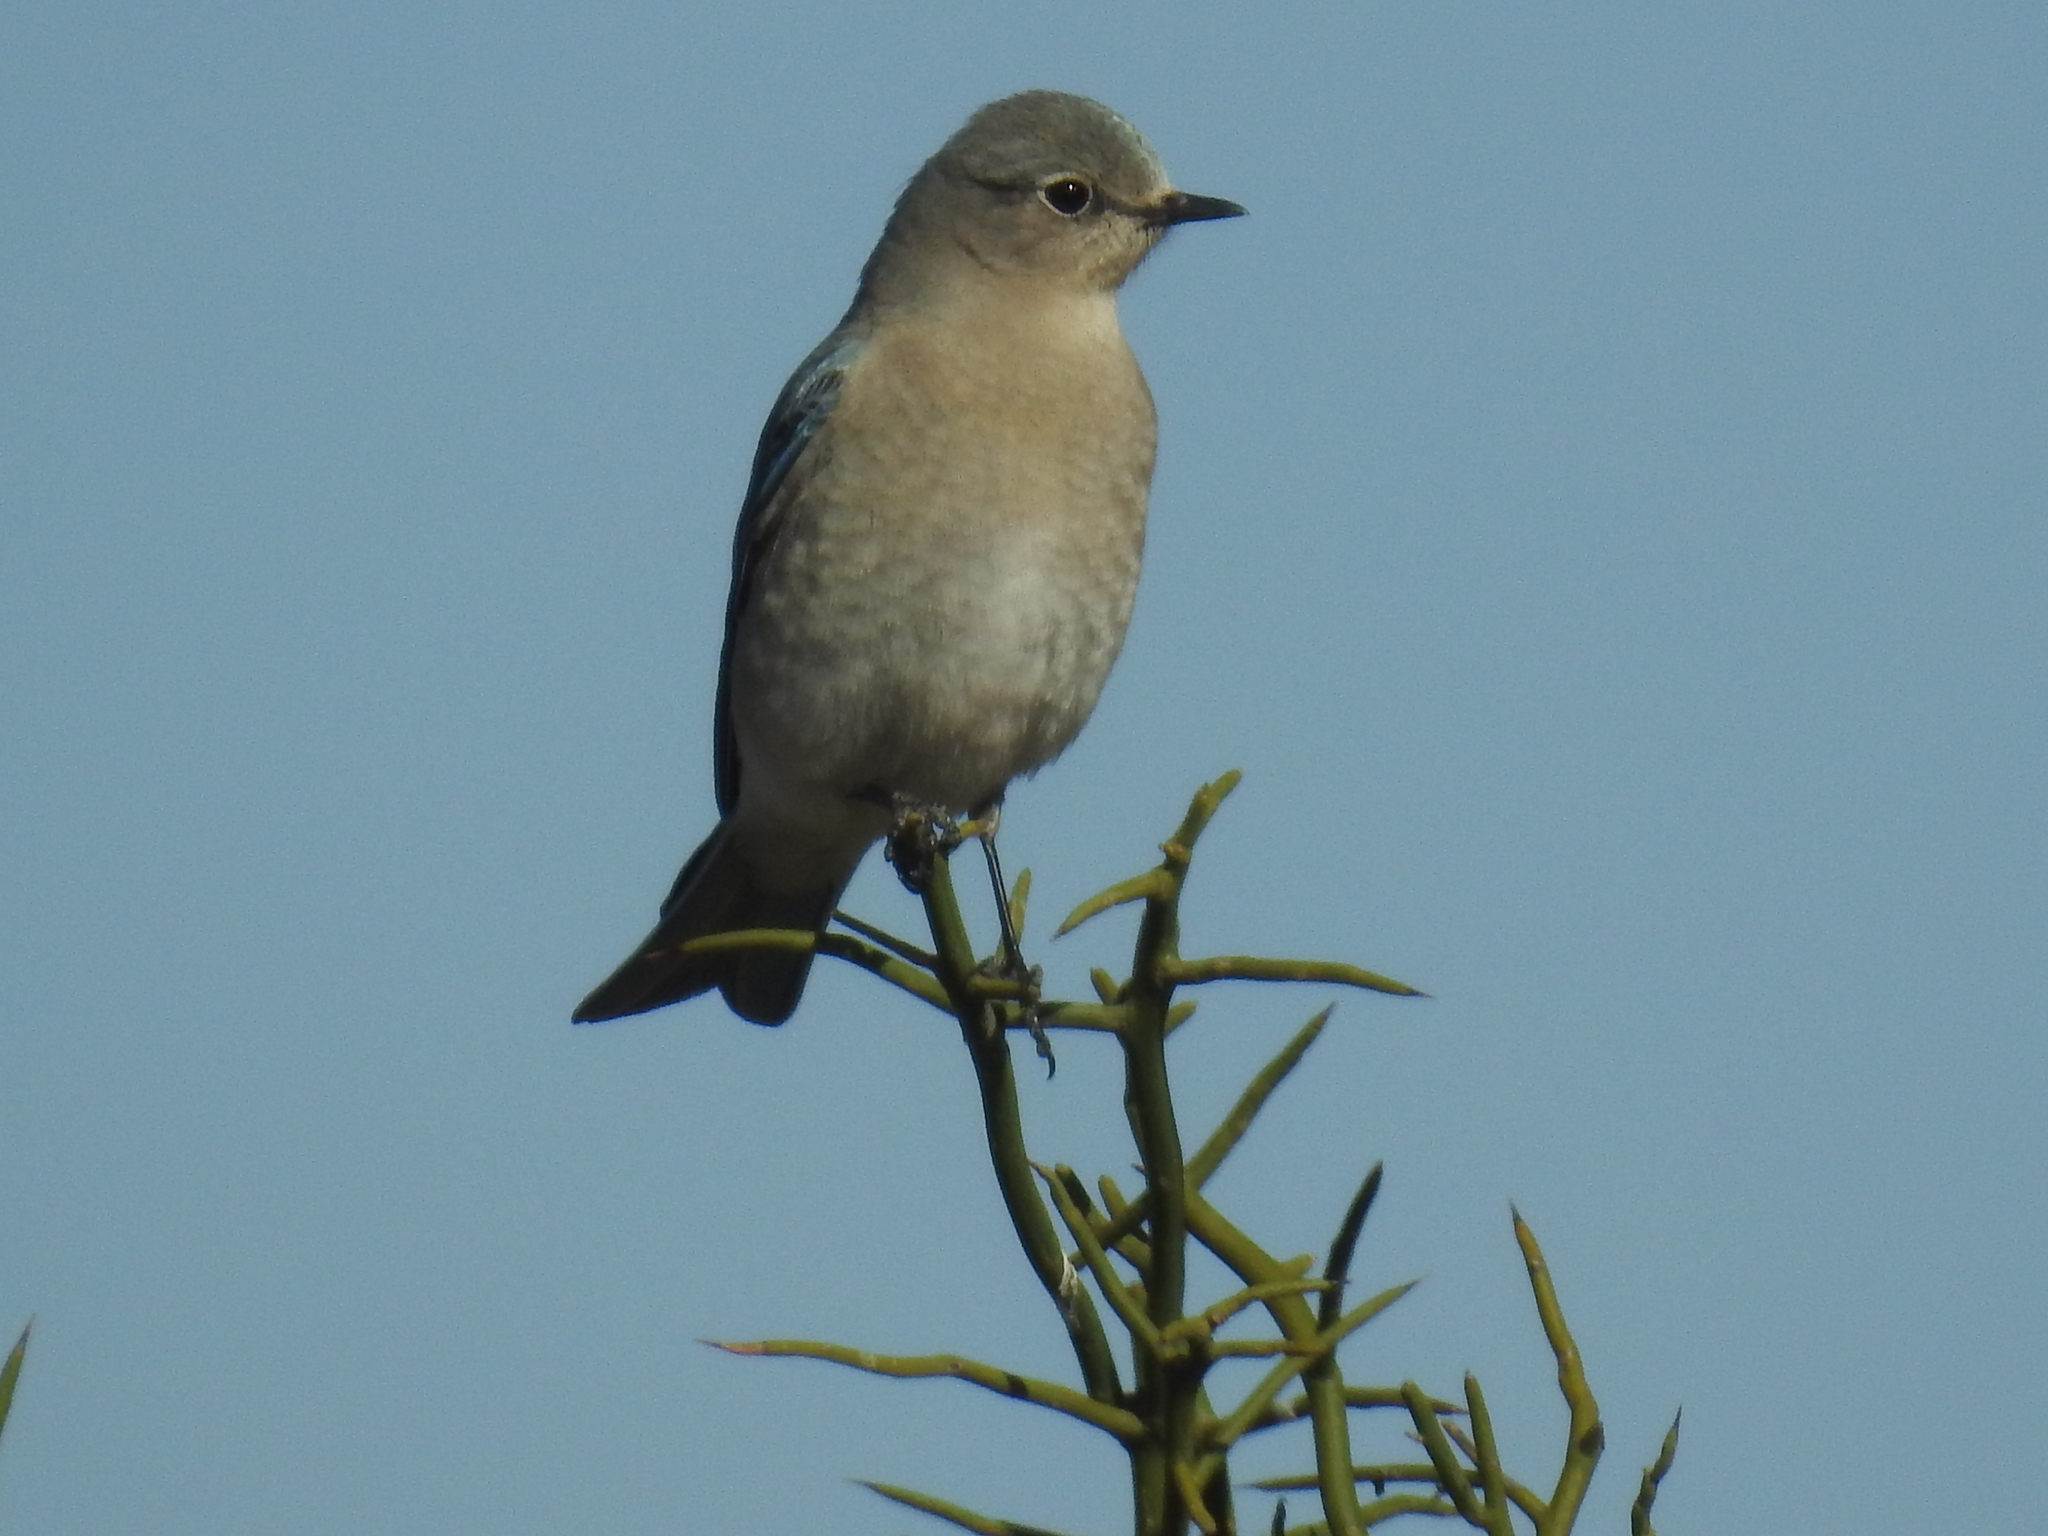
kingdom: Animalia
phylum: Chordata
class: Aves
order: Passeriformes
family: Turdidae
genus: Sialia
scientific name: Sialia currucoides
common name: Mountain bluebird
